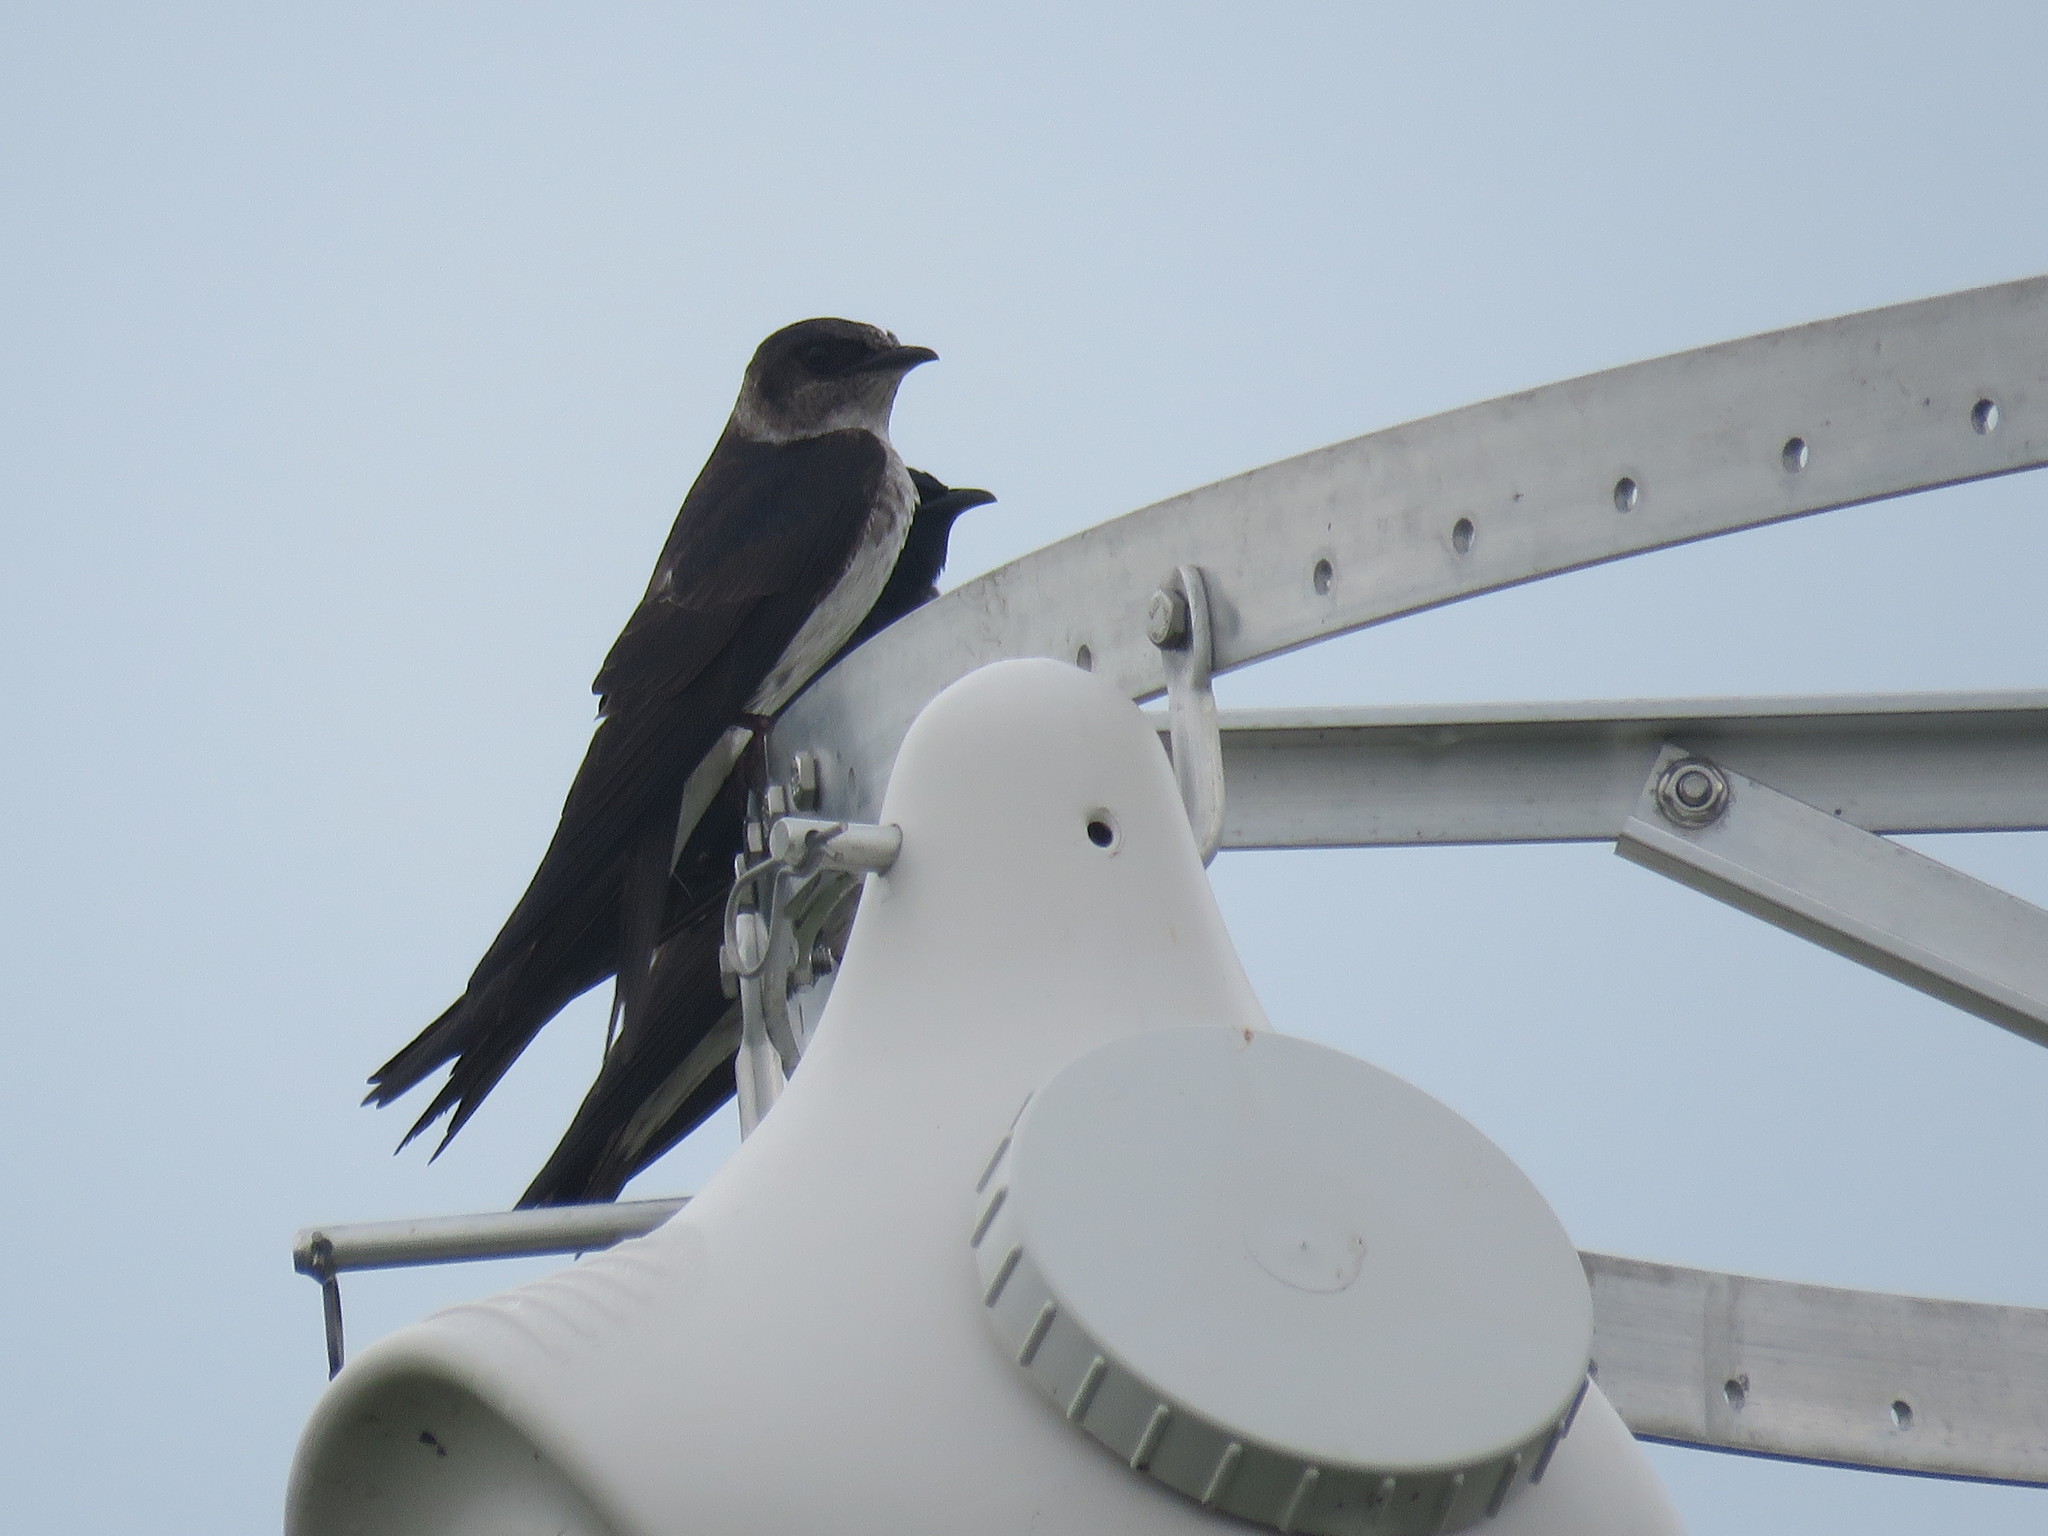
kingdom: Animalia
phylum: Chordata
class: Aves
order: Passeriformes
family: Hirundinidae
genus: Progne
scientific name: Progne subis
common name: Purple martin
